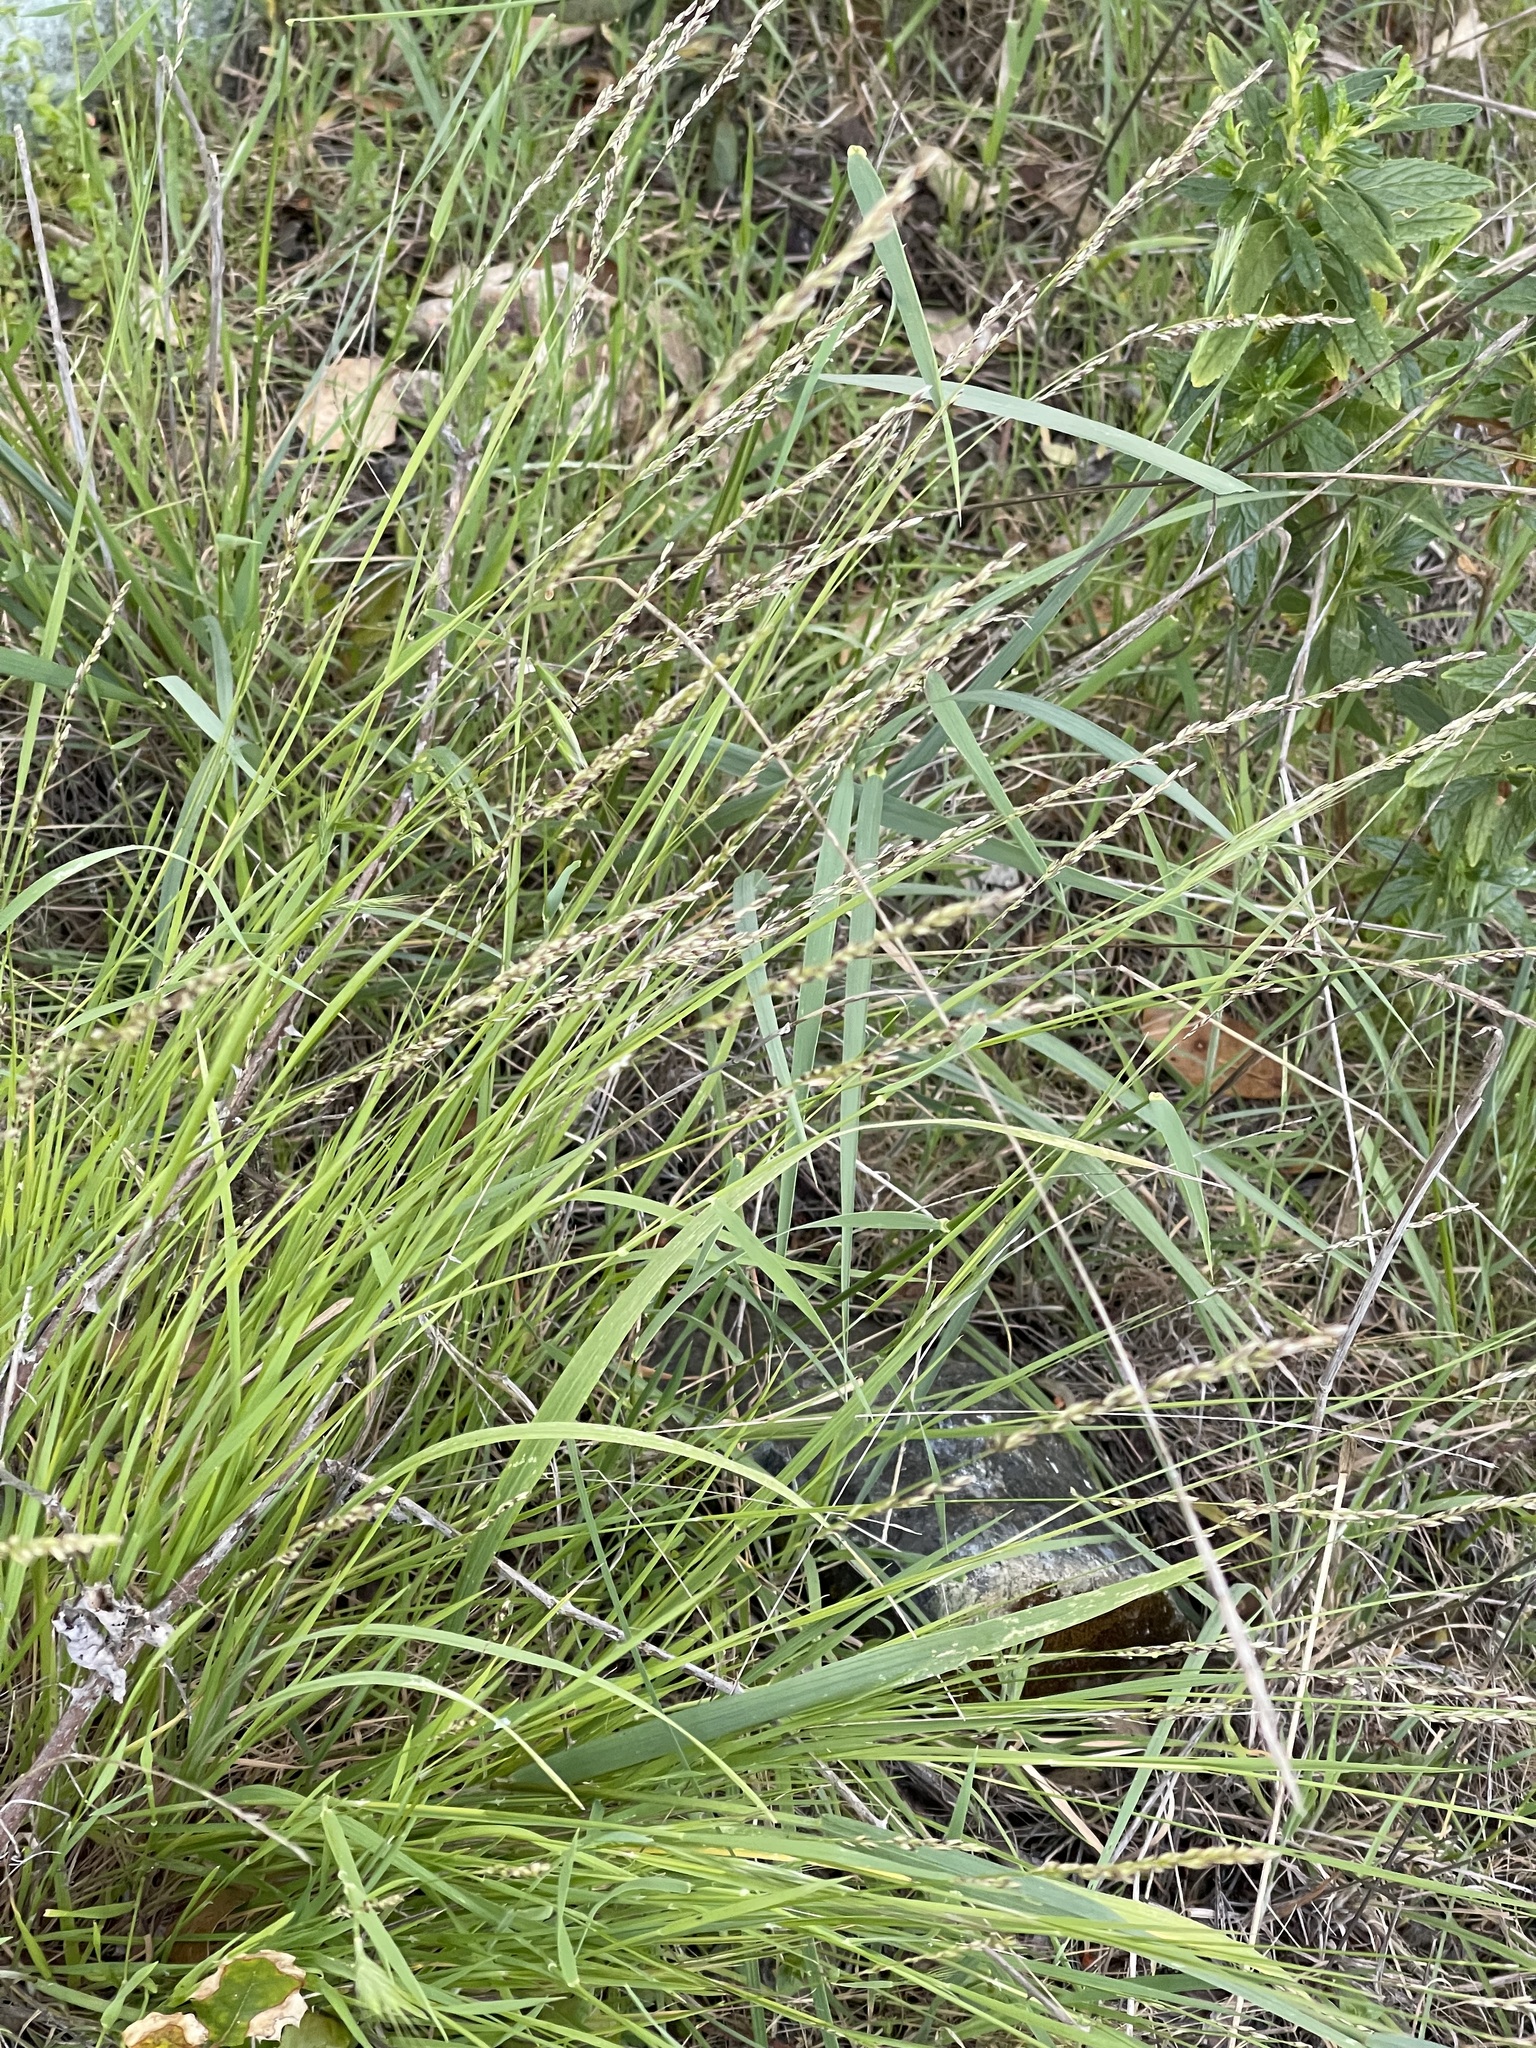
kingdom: Plantae
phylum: Tracheophyta
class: Liliopsida
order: Poales
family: Poaceae
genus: Melica
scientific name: Melica torreyana
